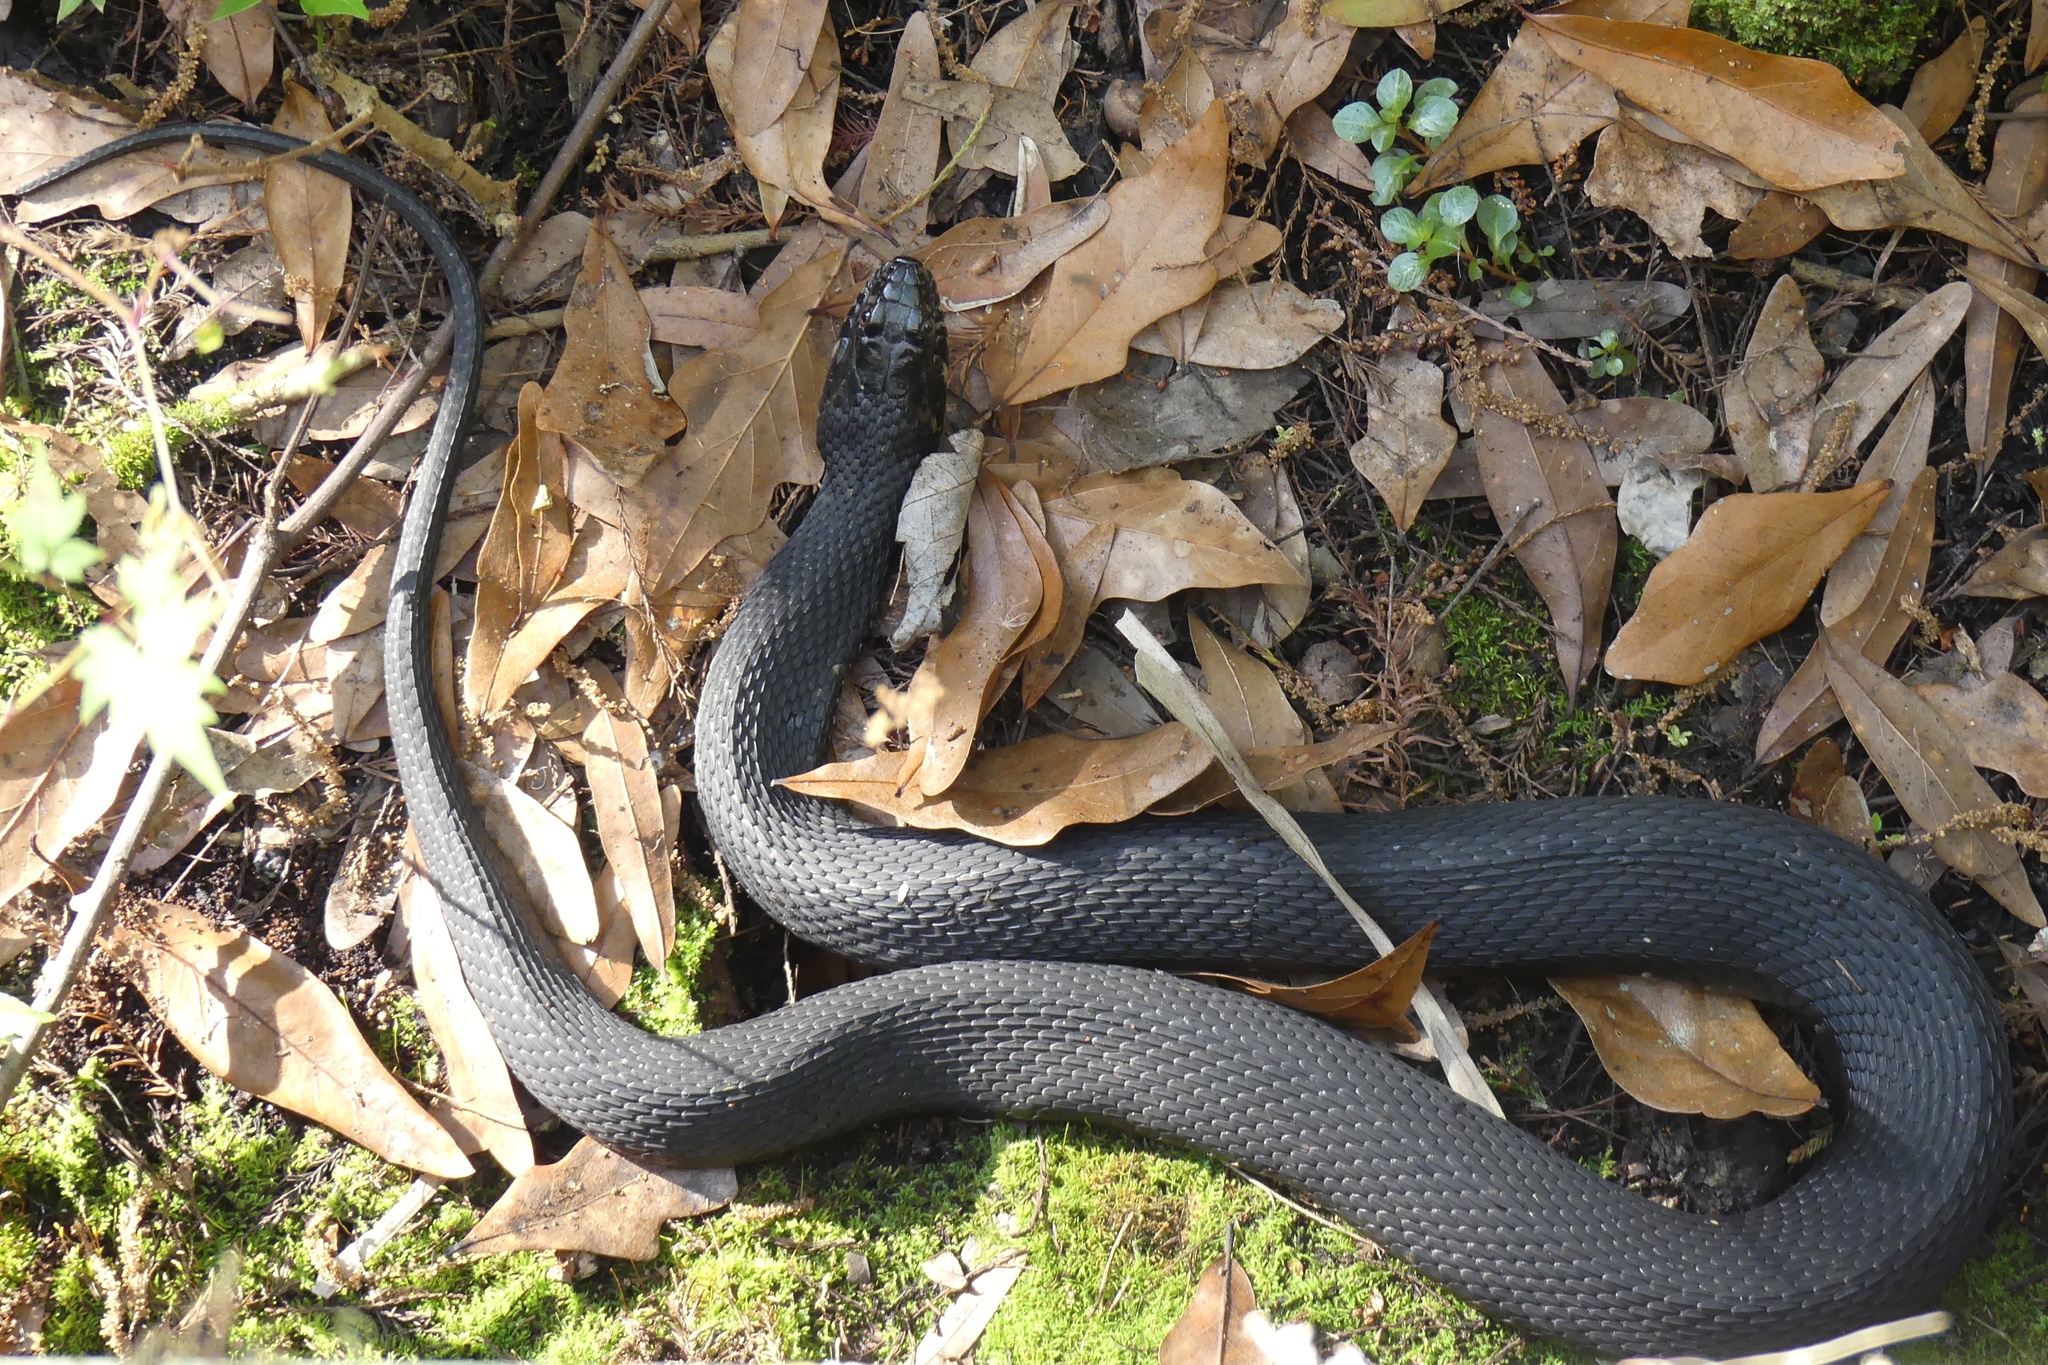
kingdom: Animalia
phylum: Chordata
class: Squamata
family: Colubridae
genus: Nerodia
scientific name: Nerodia fasciata
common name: Southern water snake
